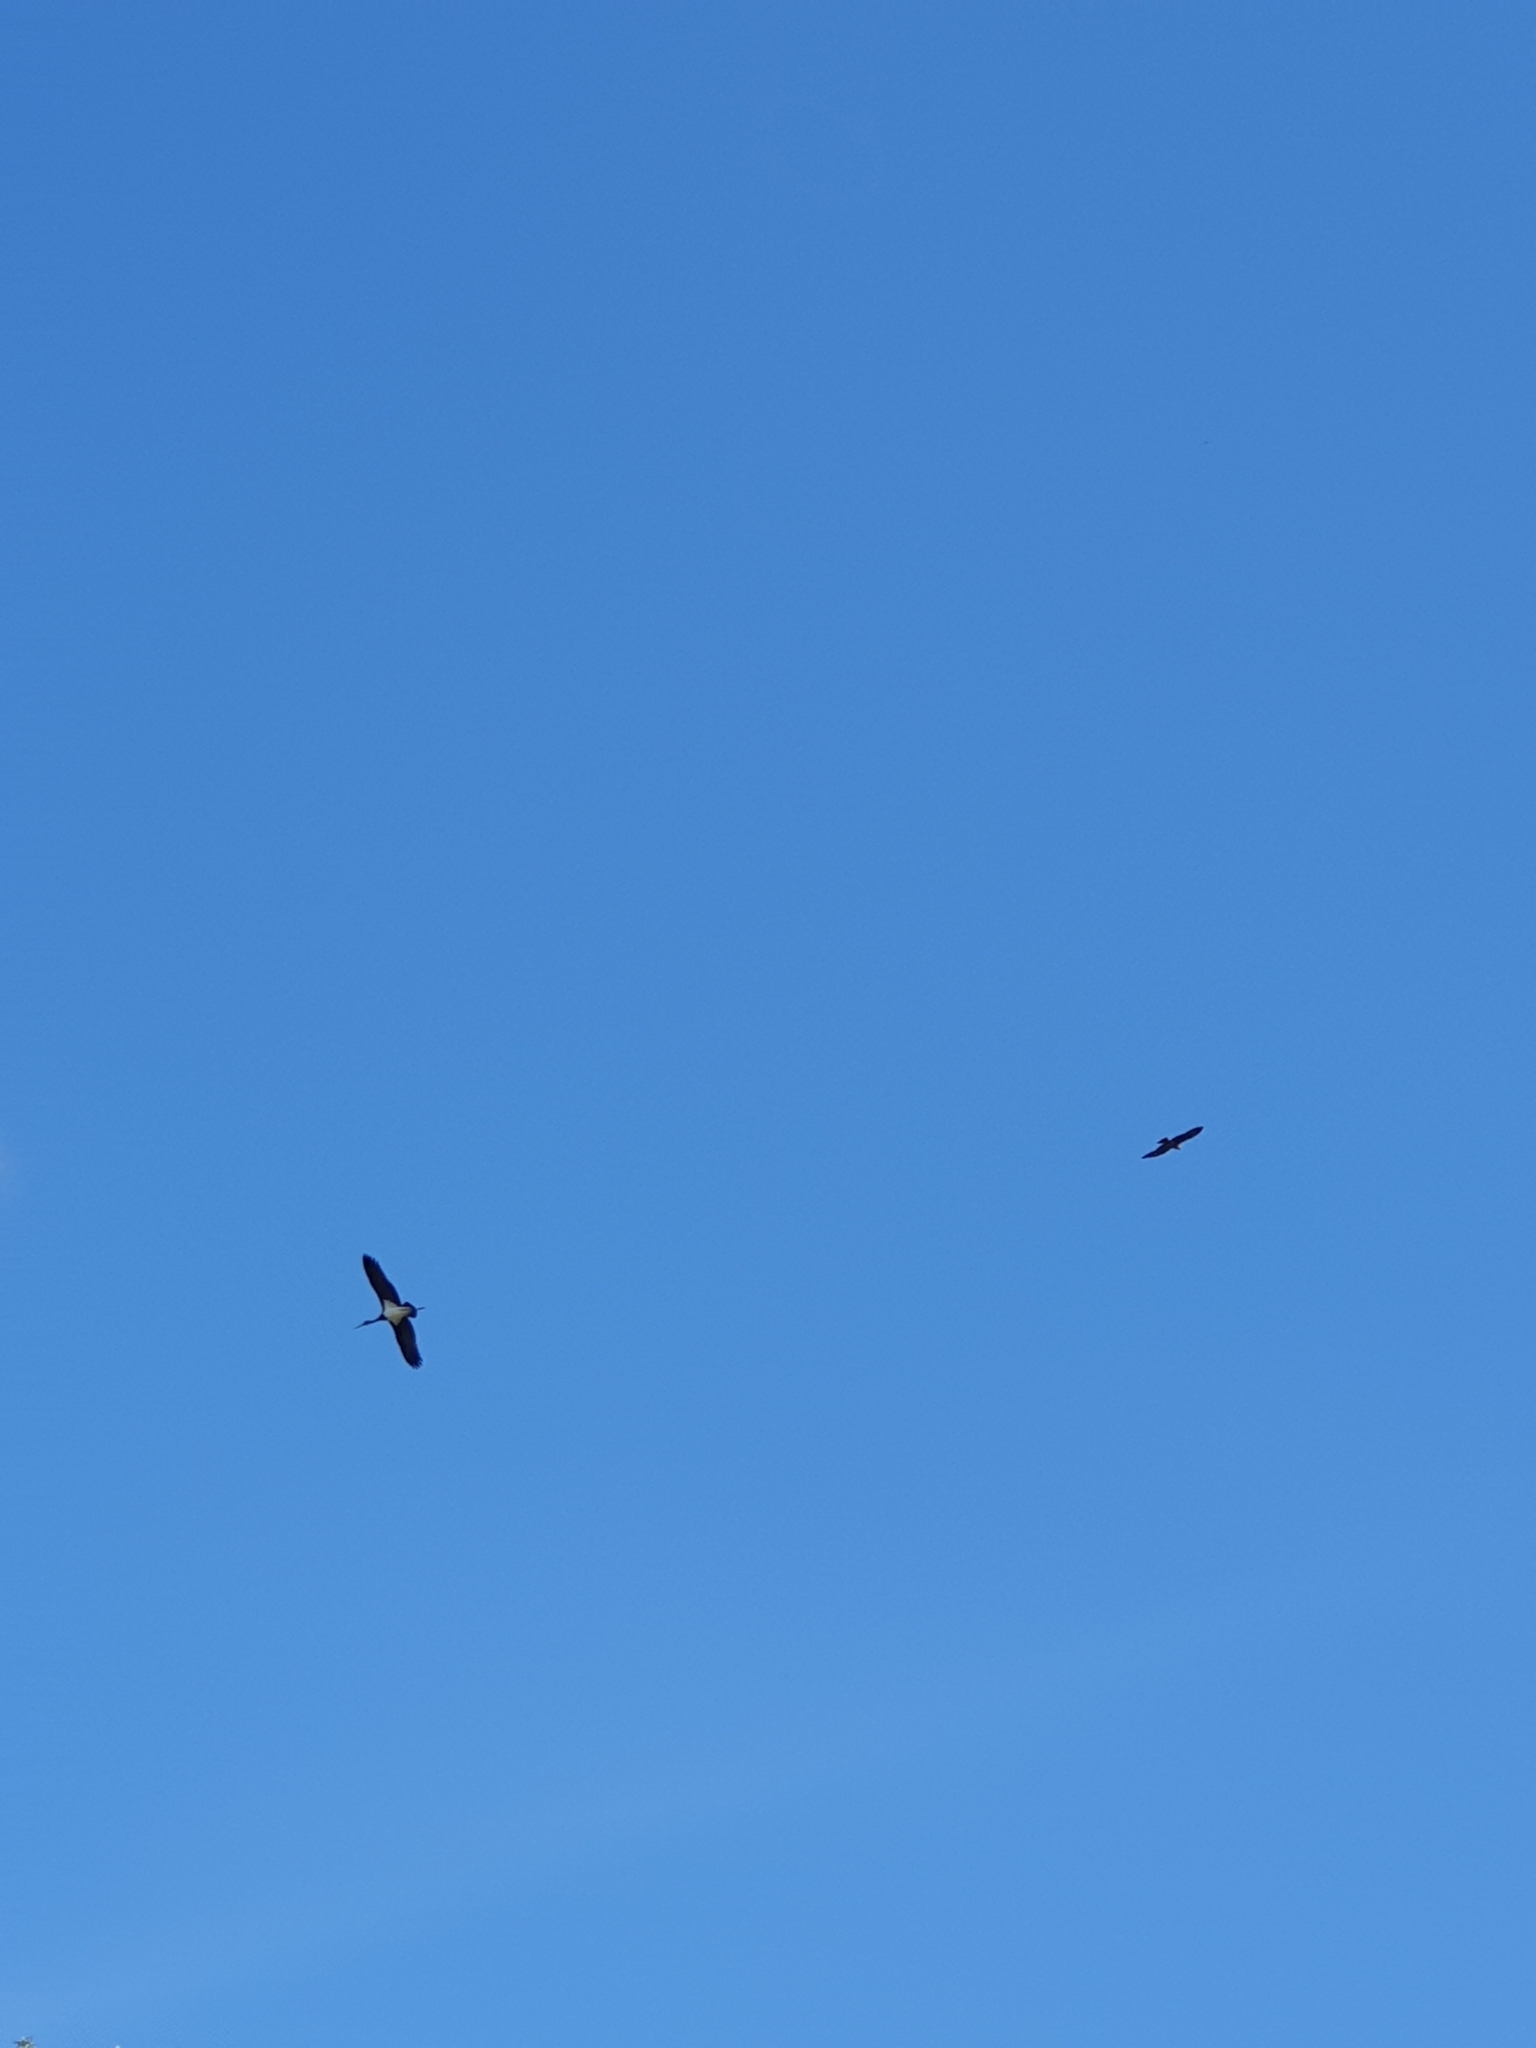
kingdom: Animalia
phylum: Chordata
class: Aves
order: Ciconiiformes
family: Ciconiidae
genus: Ciconia
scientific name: Ciconia nigra
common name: Black stork
